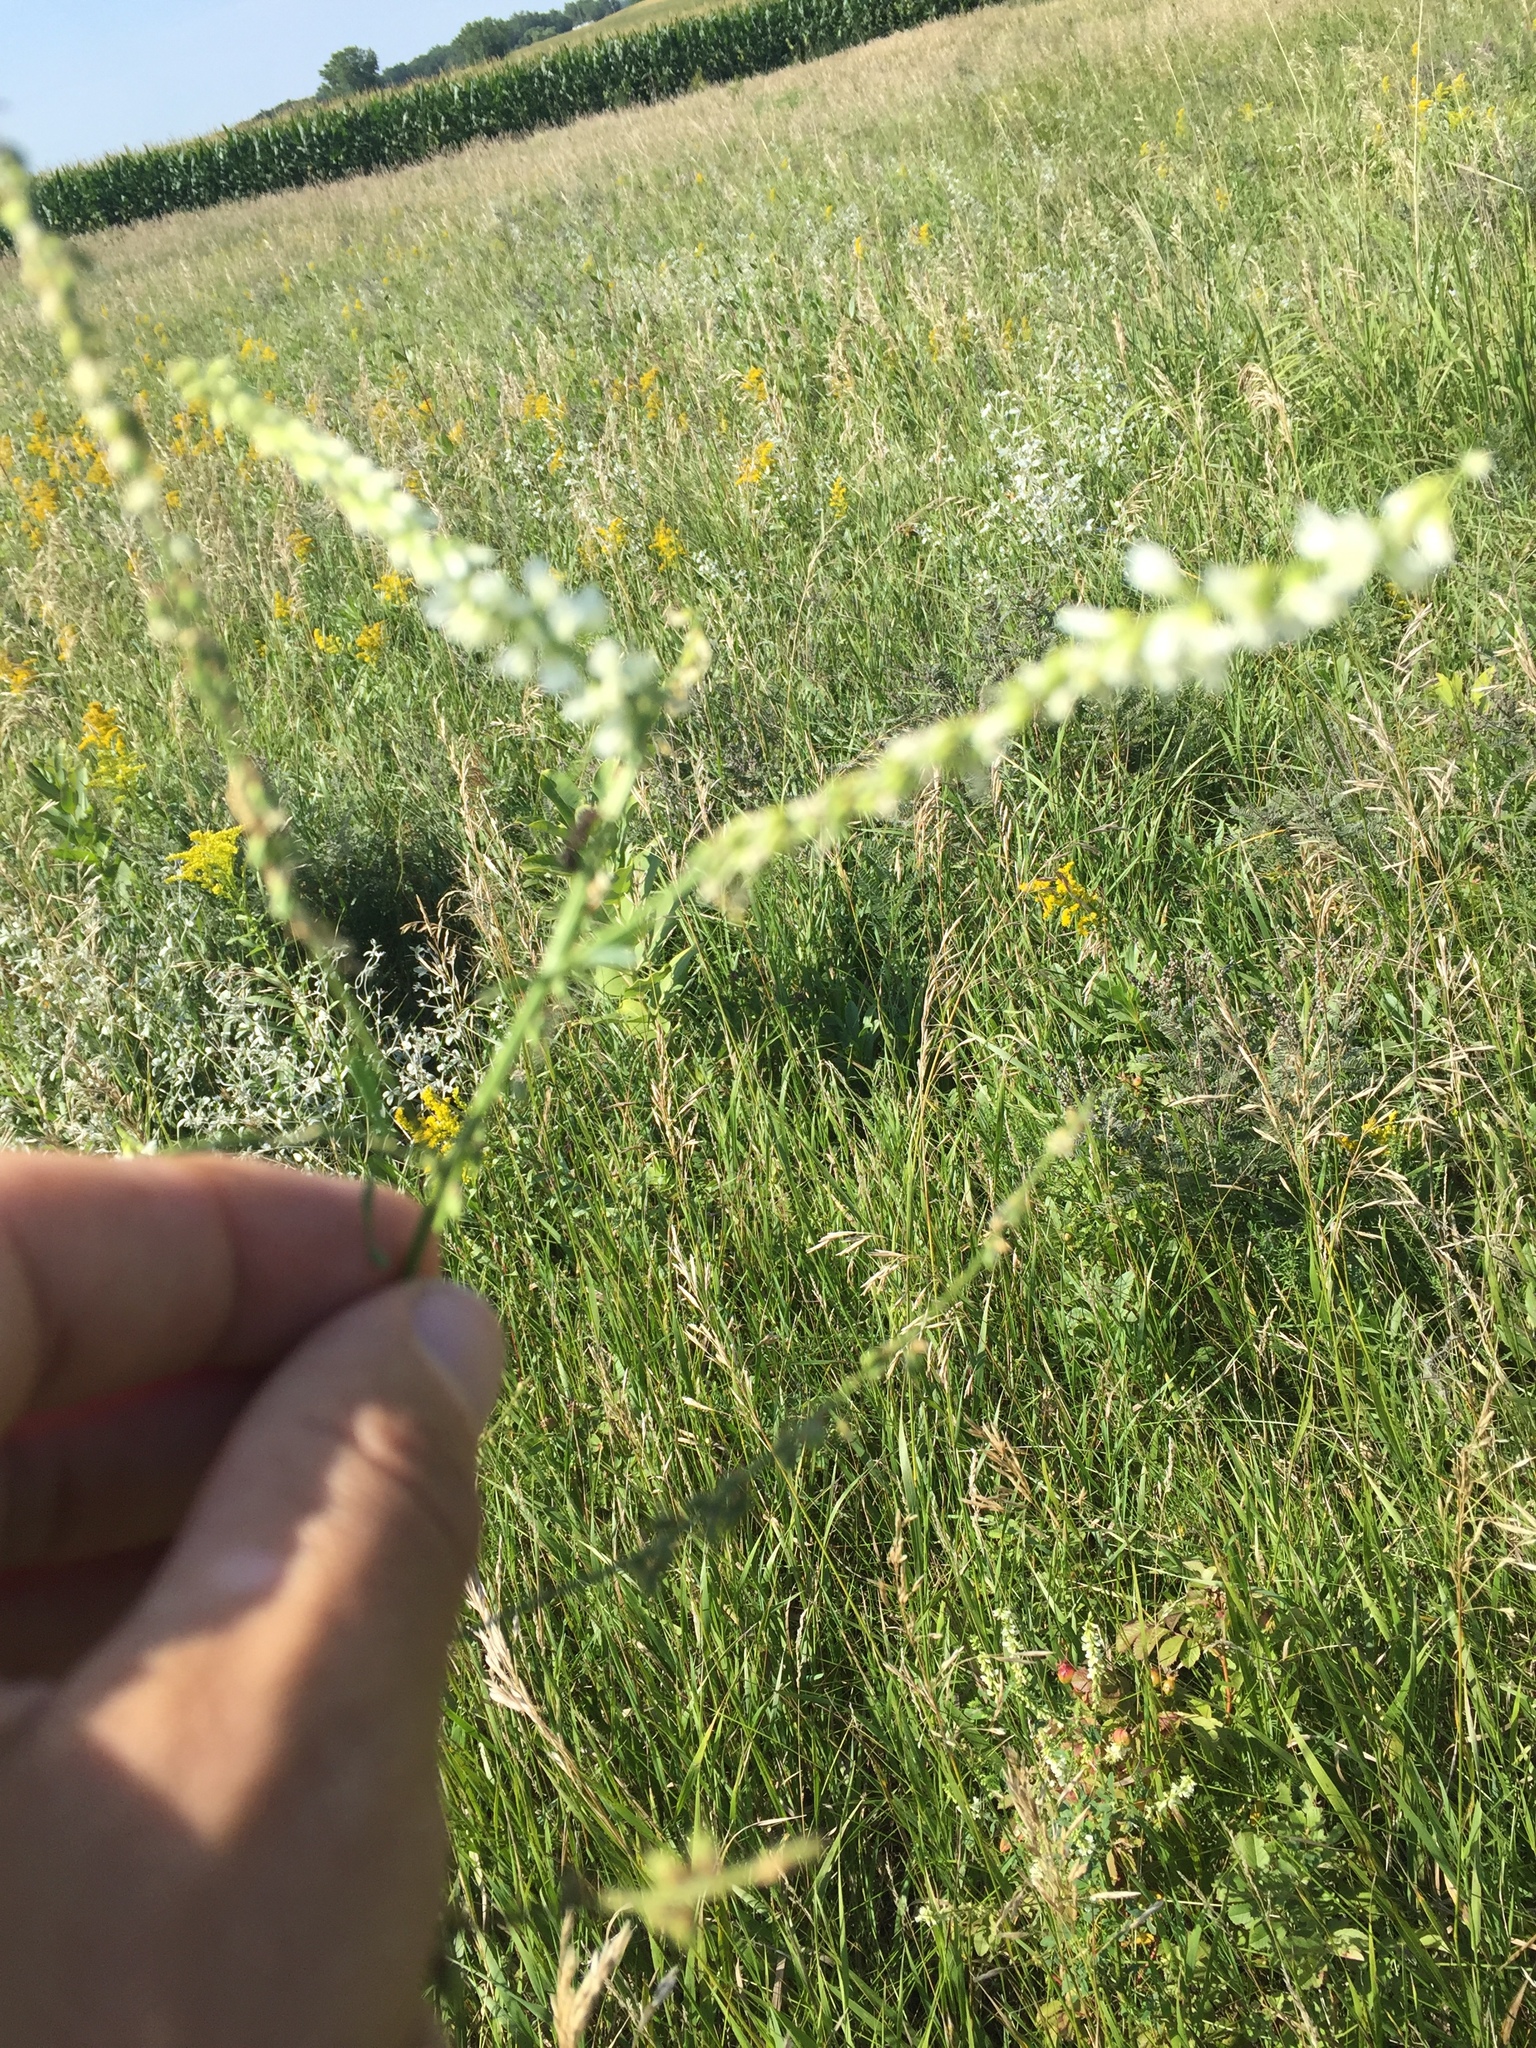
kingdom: Plantae
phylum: Tracheophyta
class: Magnoliopsida
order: Fabales
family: Fabaceae
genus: Melilotus
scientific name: Melilotus albus
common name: White melilot
